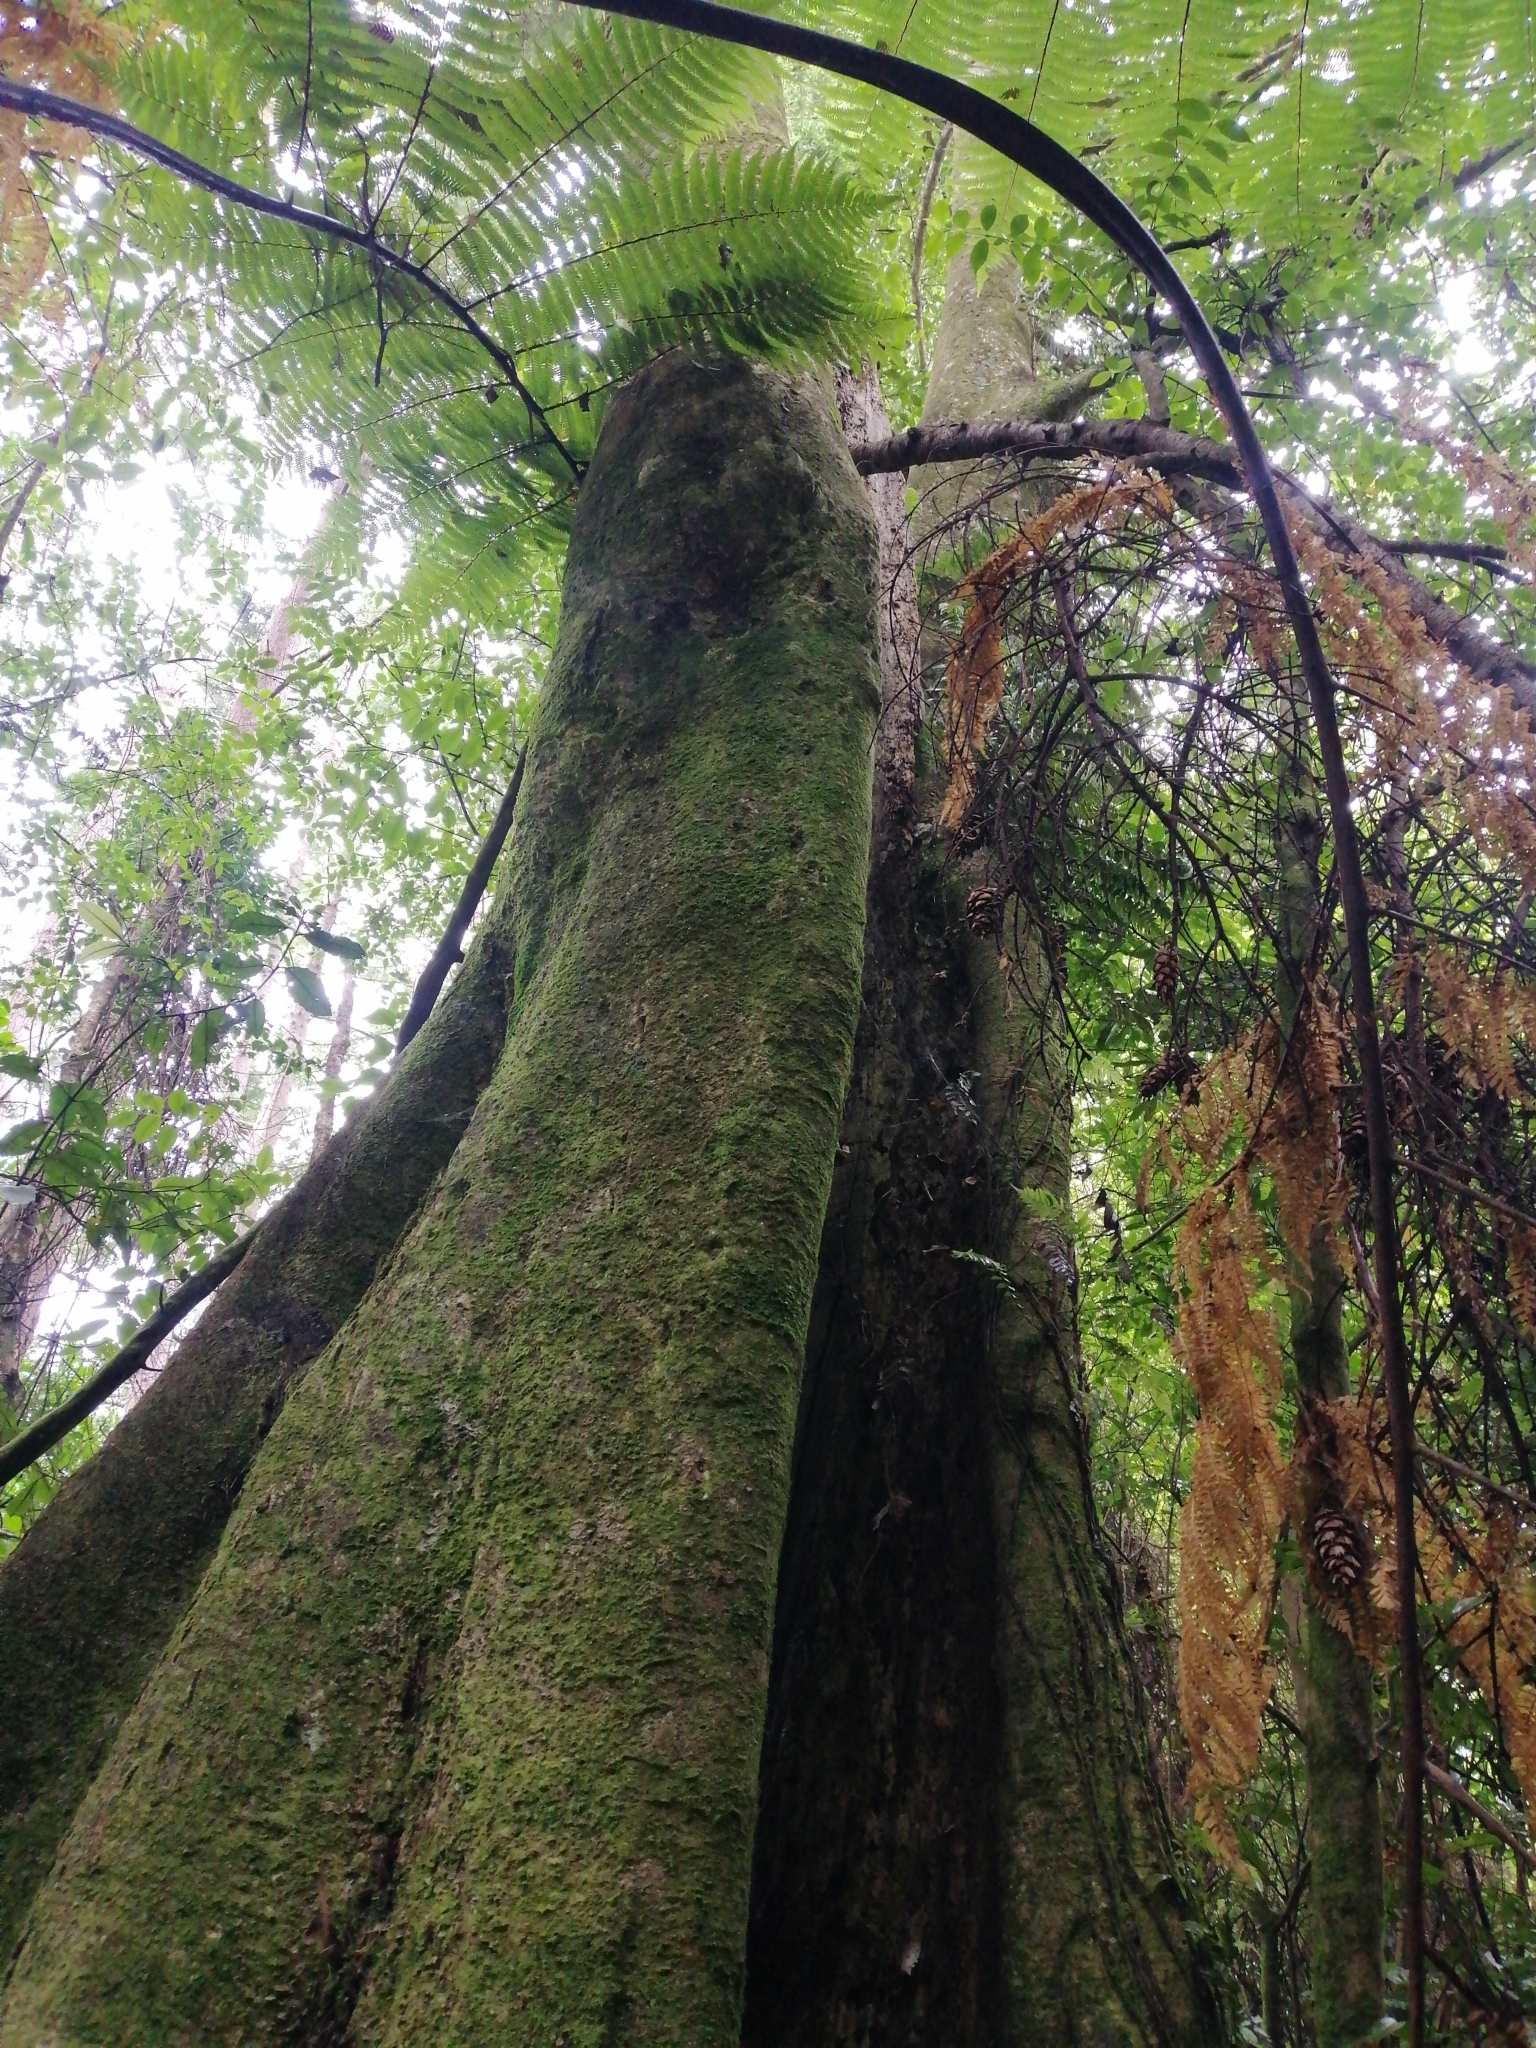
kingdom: Plantae
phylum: Tracheophyta
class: Magnoliopsida
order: Laurales
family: Atherospermataceae
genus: Laurelia
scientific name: Laurelia novae-zelandiae
